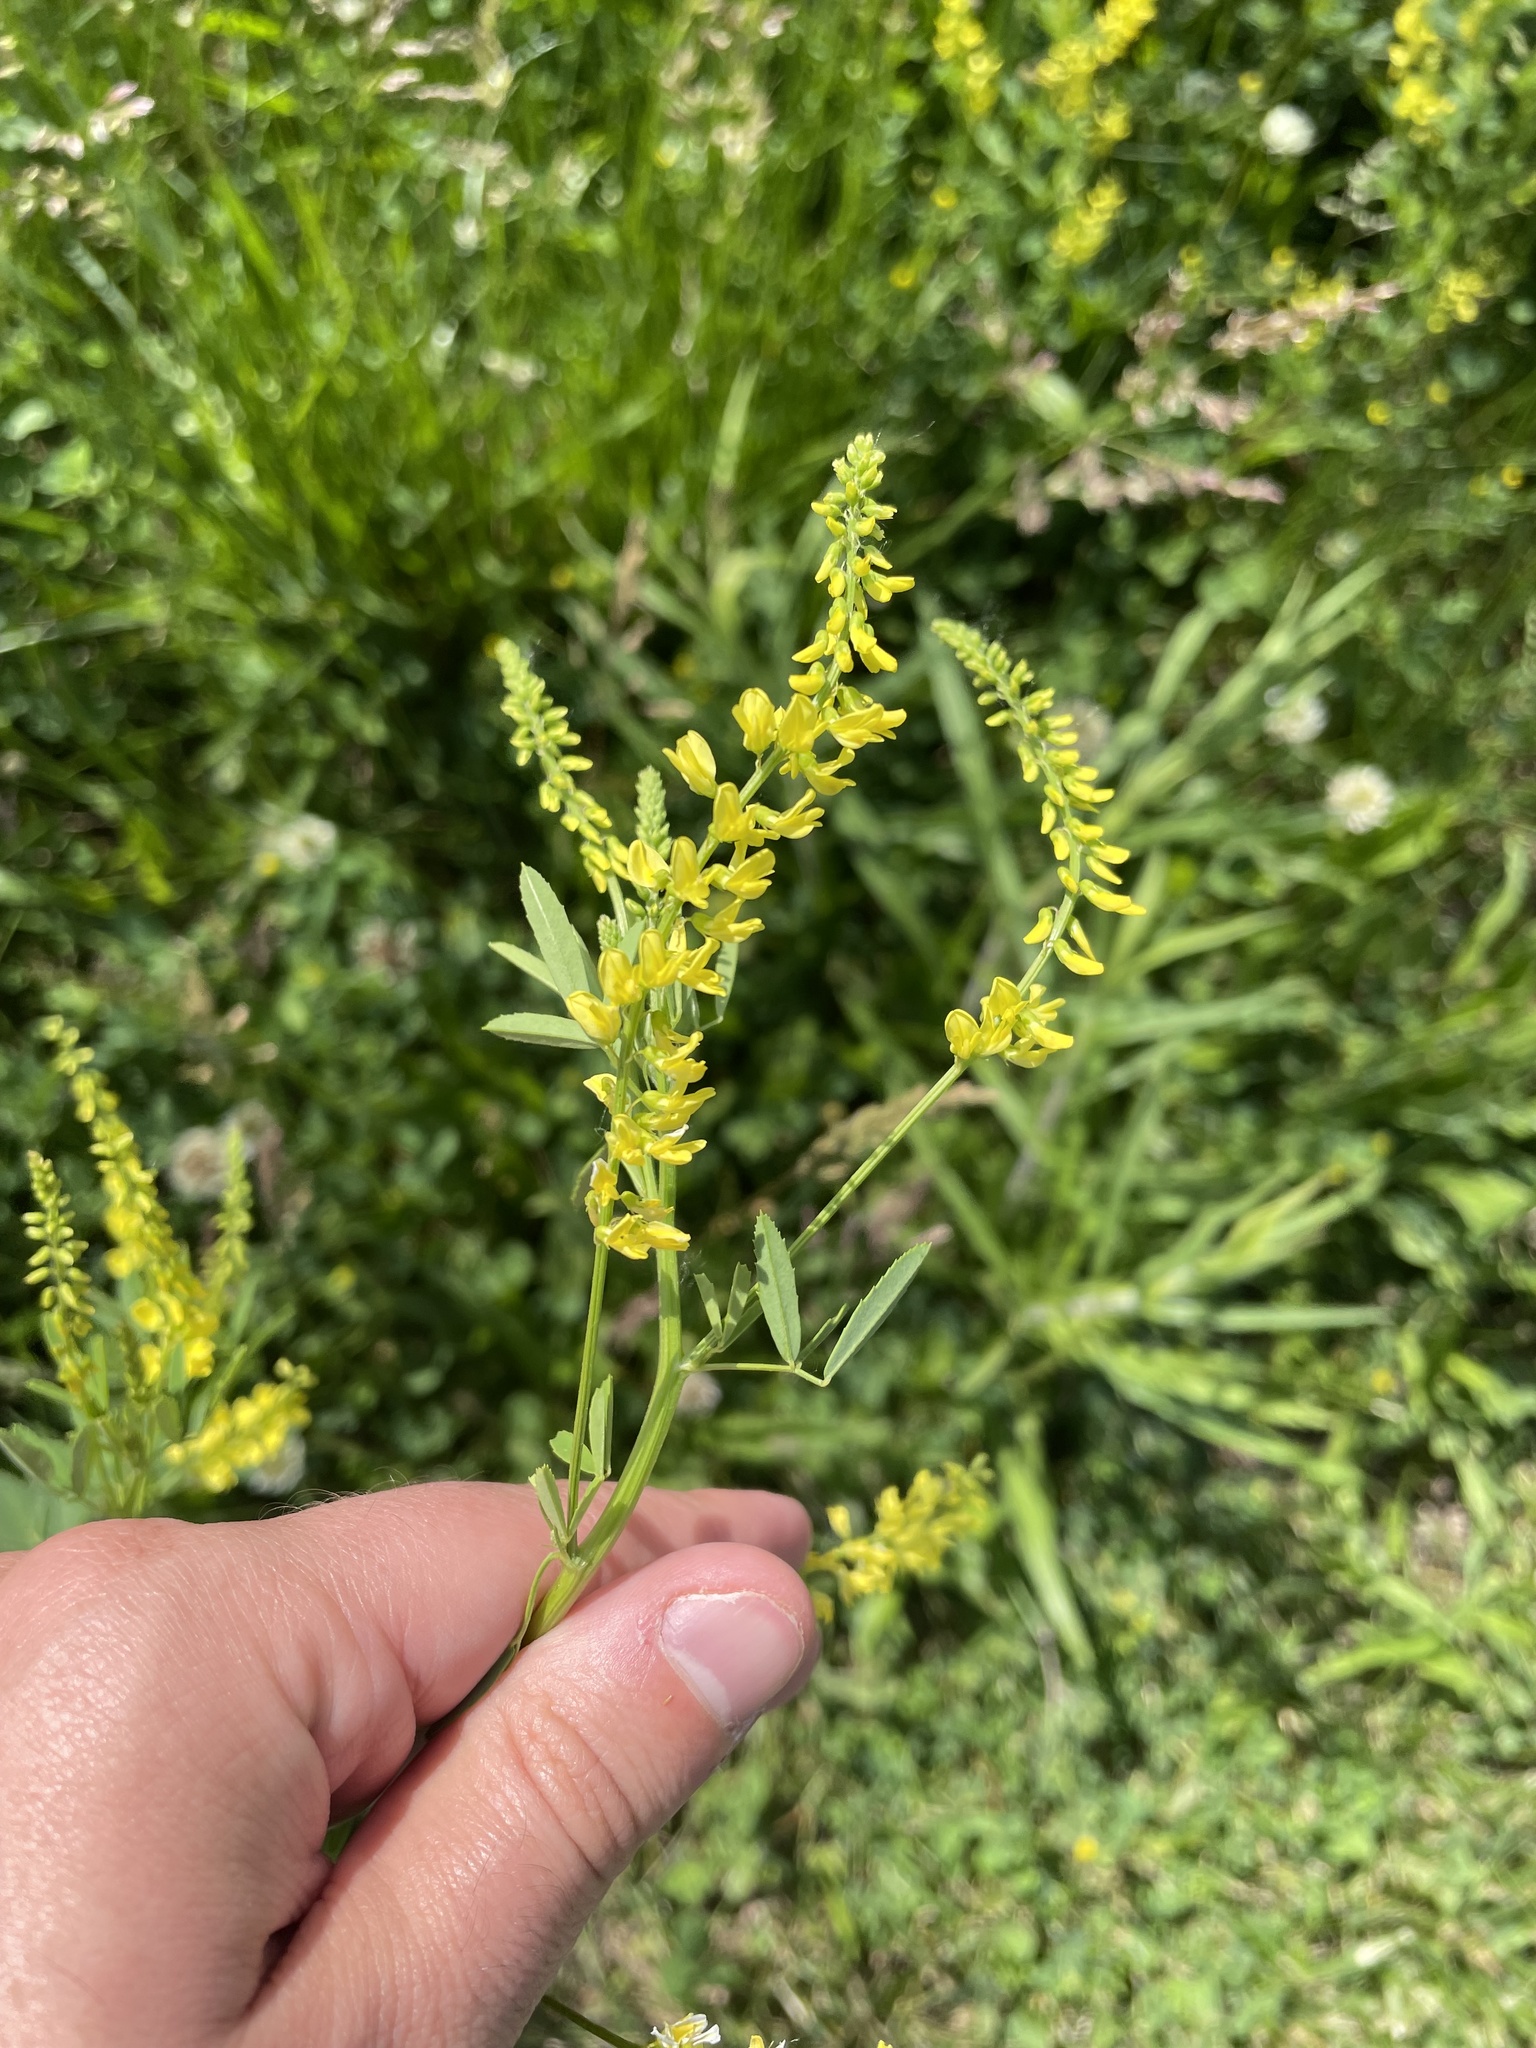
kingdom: Plantae
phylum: Tracheophyta
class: Magnoliopsida
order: Fabales
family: Fabaceae
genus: Melilotus
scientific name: Melilotus officinalis
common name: Sweetclover
